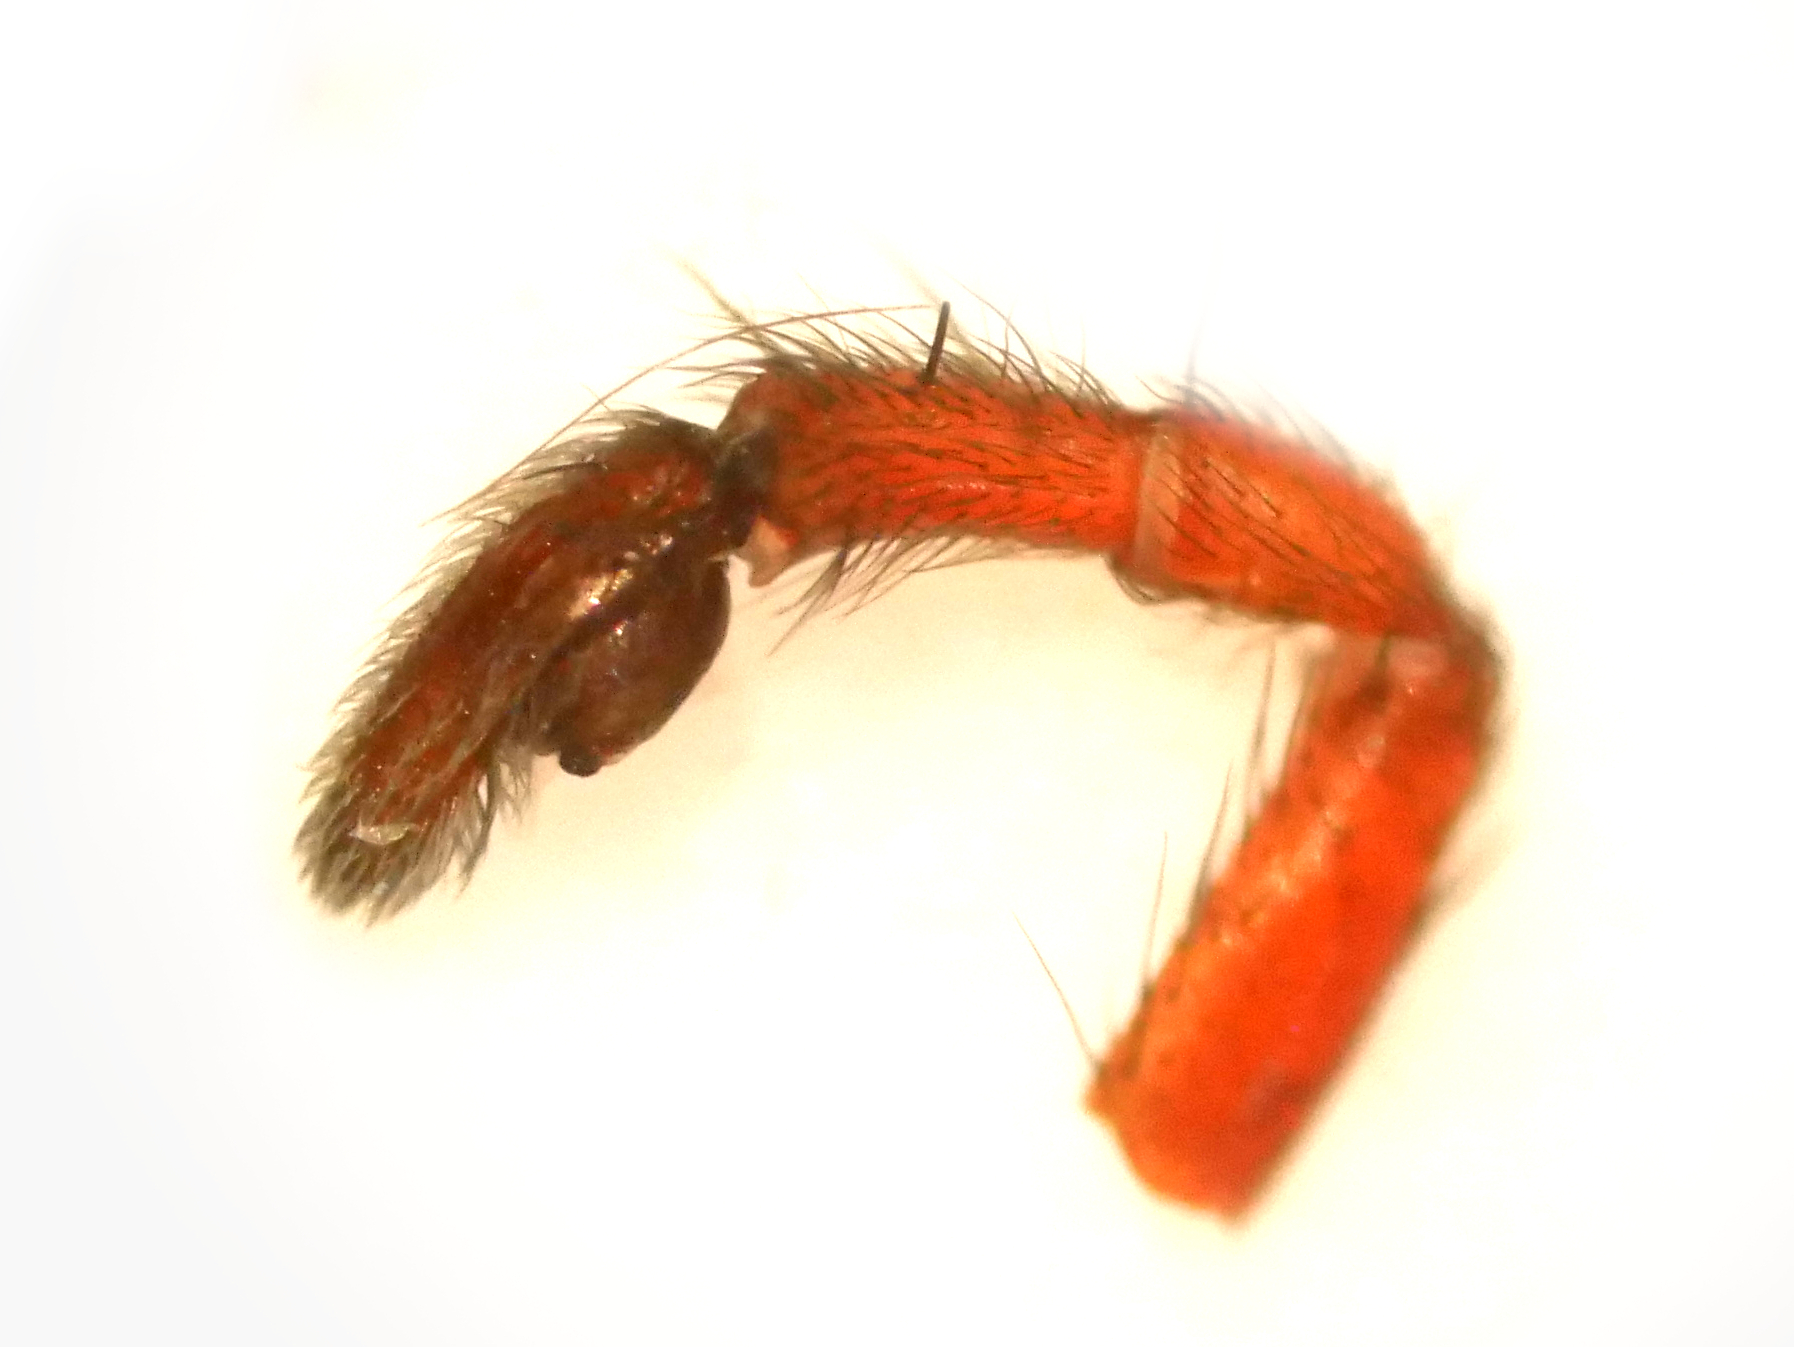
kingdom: Animalia
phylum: Arthropoda
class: Arachnida
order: Araneae
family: Gnaphosidae
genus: Drassodes
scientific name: Drassodes cupreus
